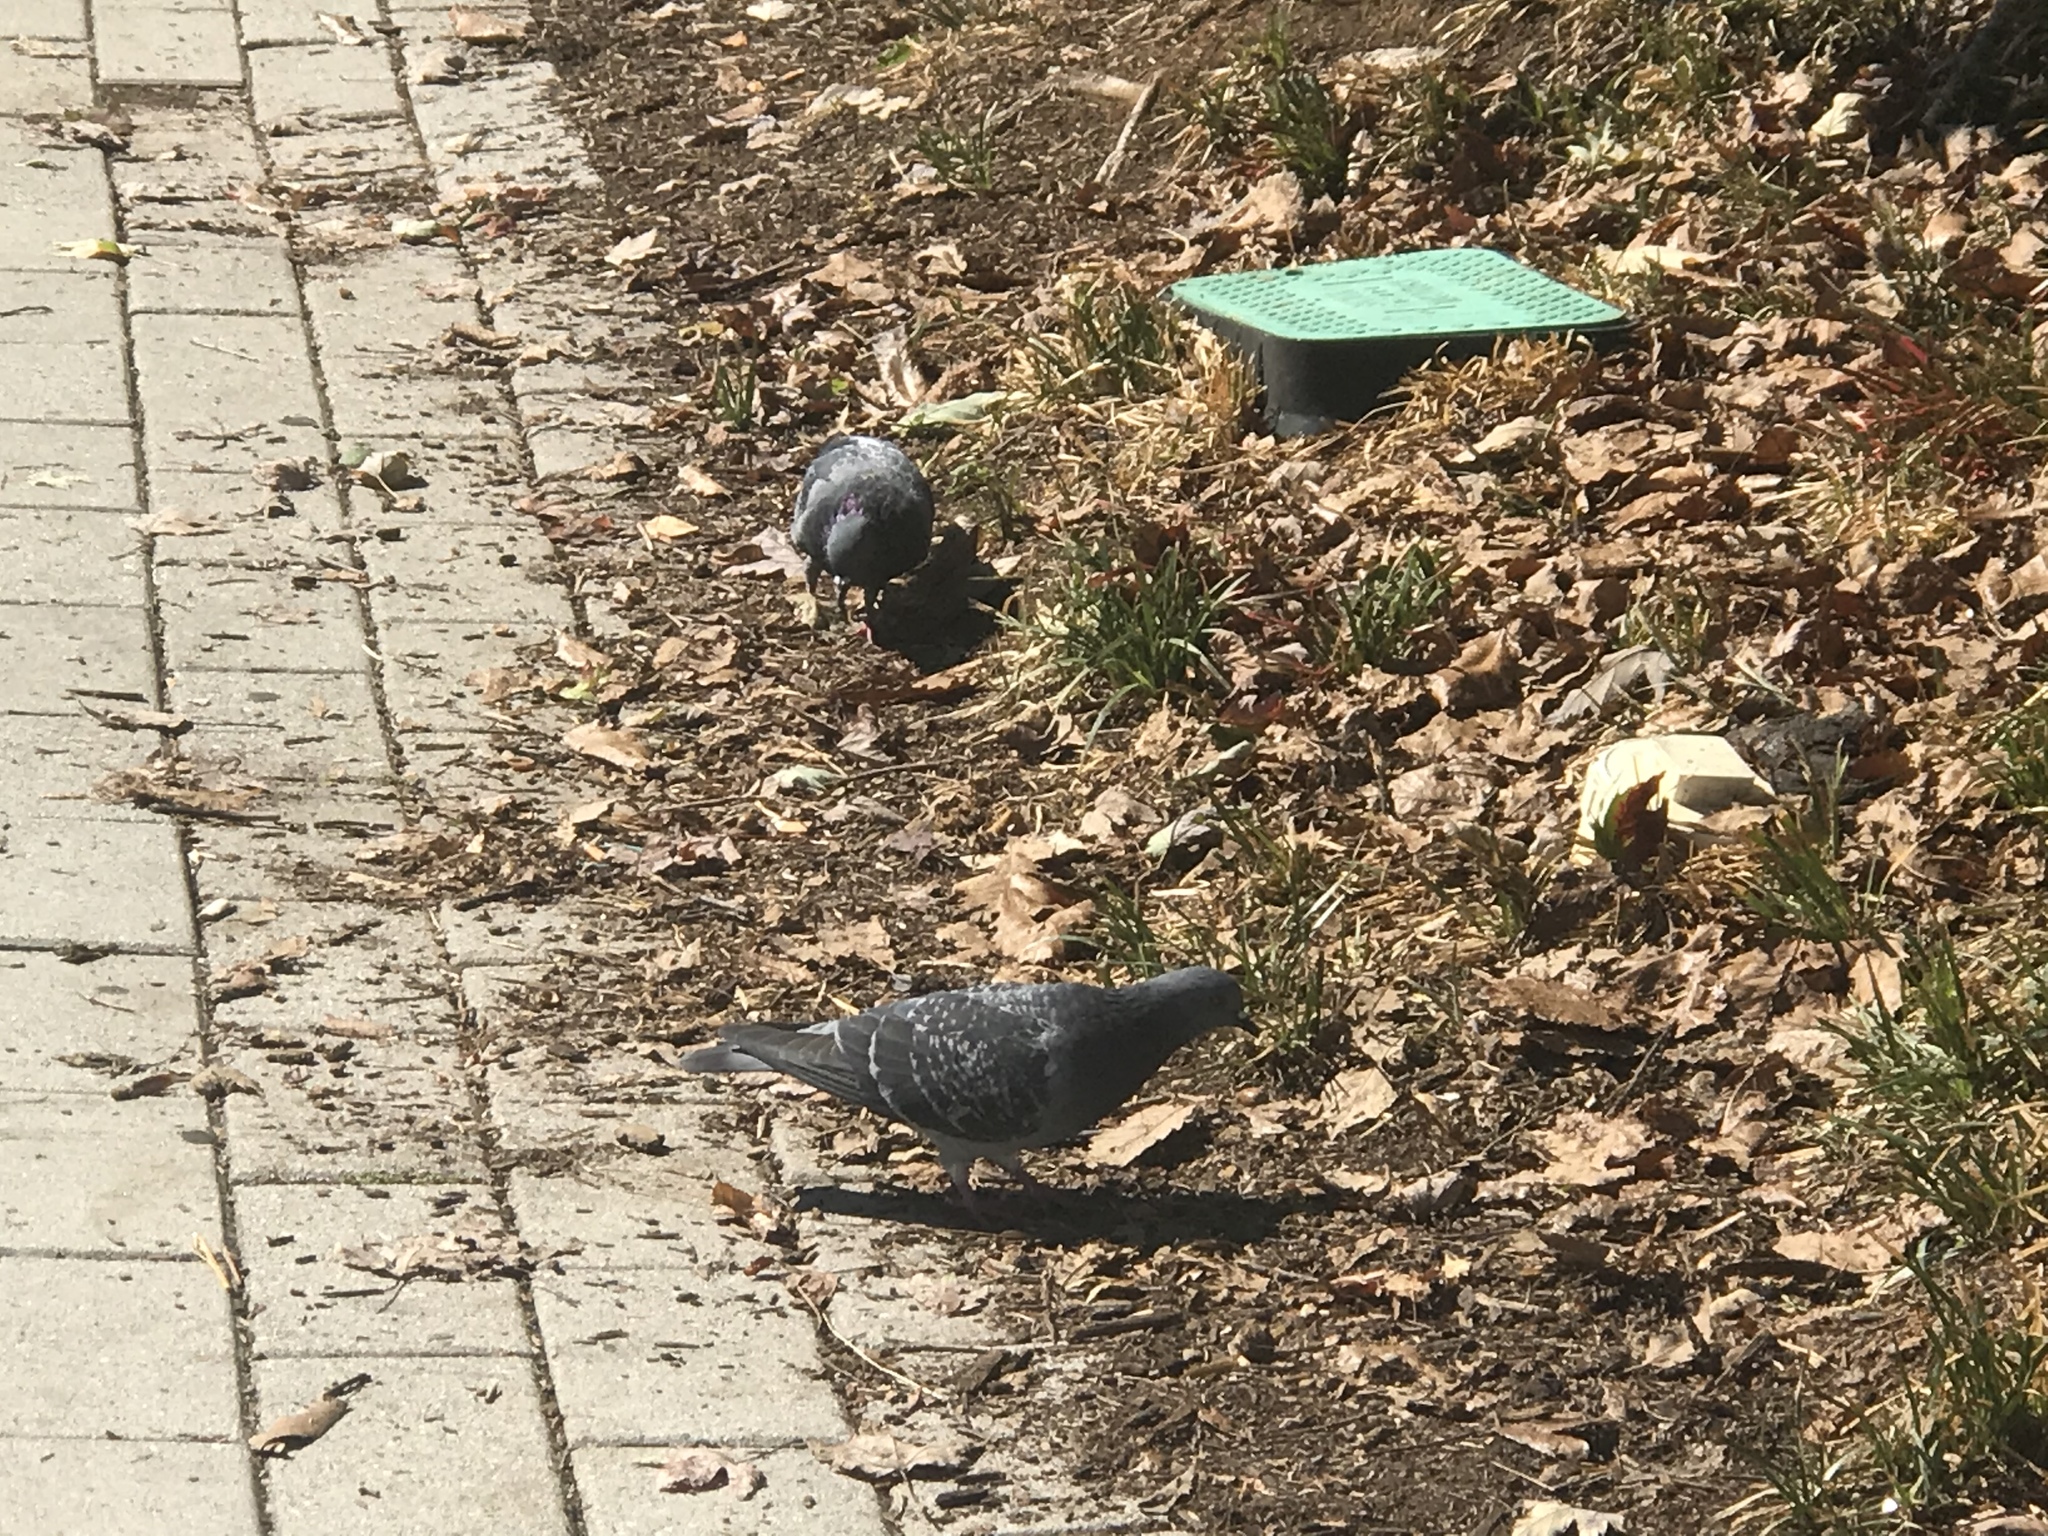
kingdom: Animalia
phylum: Chordata
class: Aves
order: Columbiformes
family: Columbidae
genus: Columba
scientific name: Columba livia
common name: Rock pigeon
